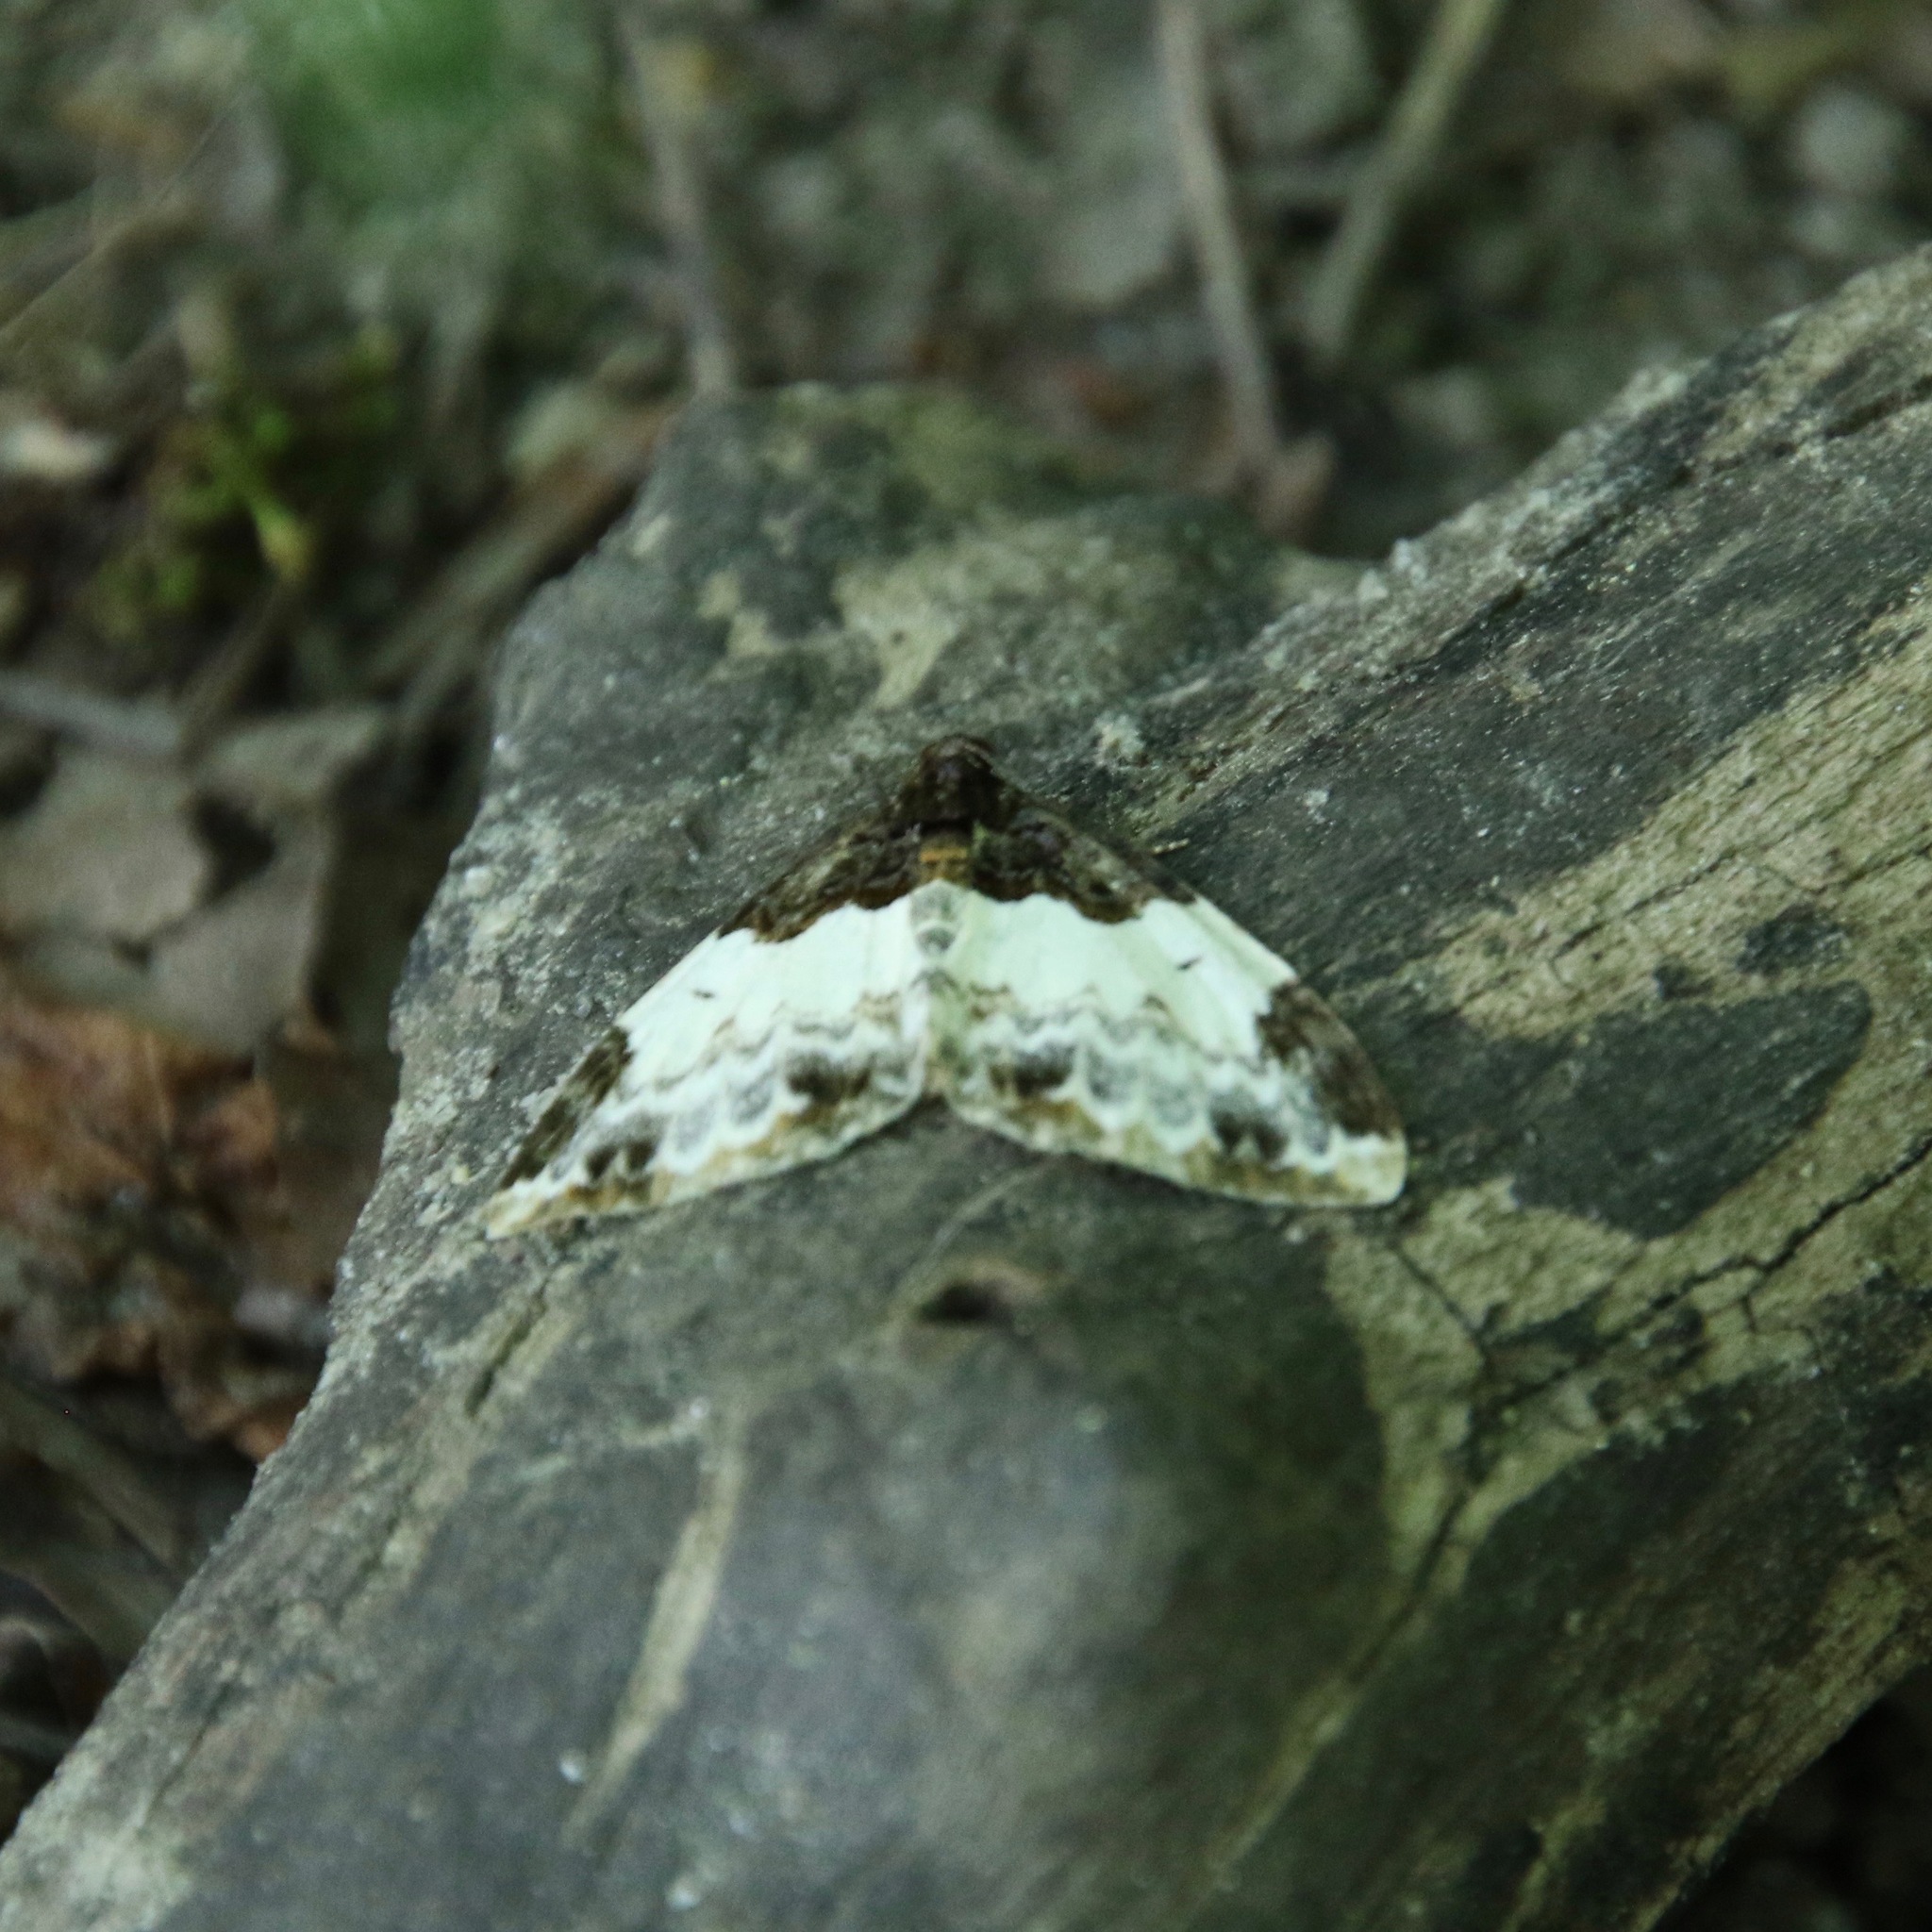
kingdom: Animalia
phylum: Arthropoda
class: Insecta
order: Lepidoptera
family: Geometridae
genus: Mesoleuca
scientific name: Mesoleuca ruficillata
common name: White-ribboned carpet moth
